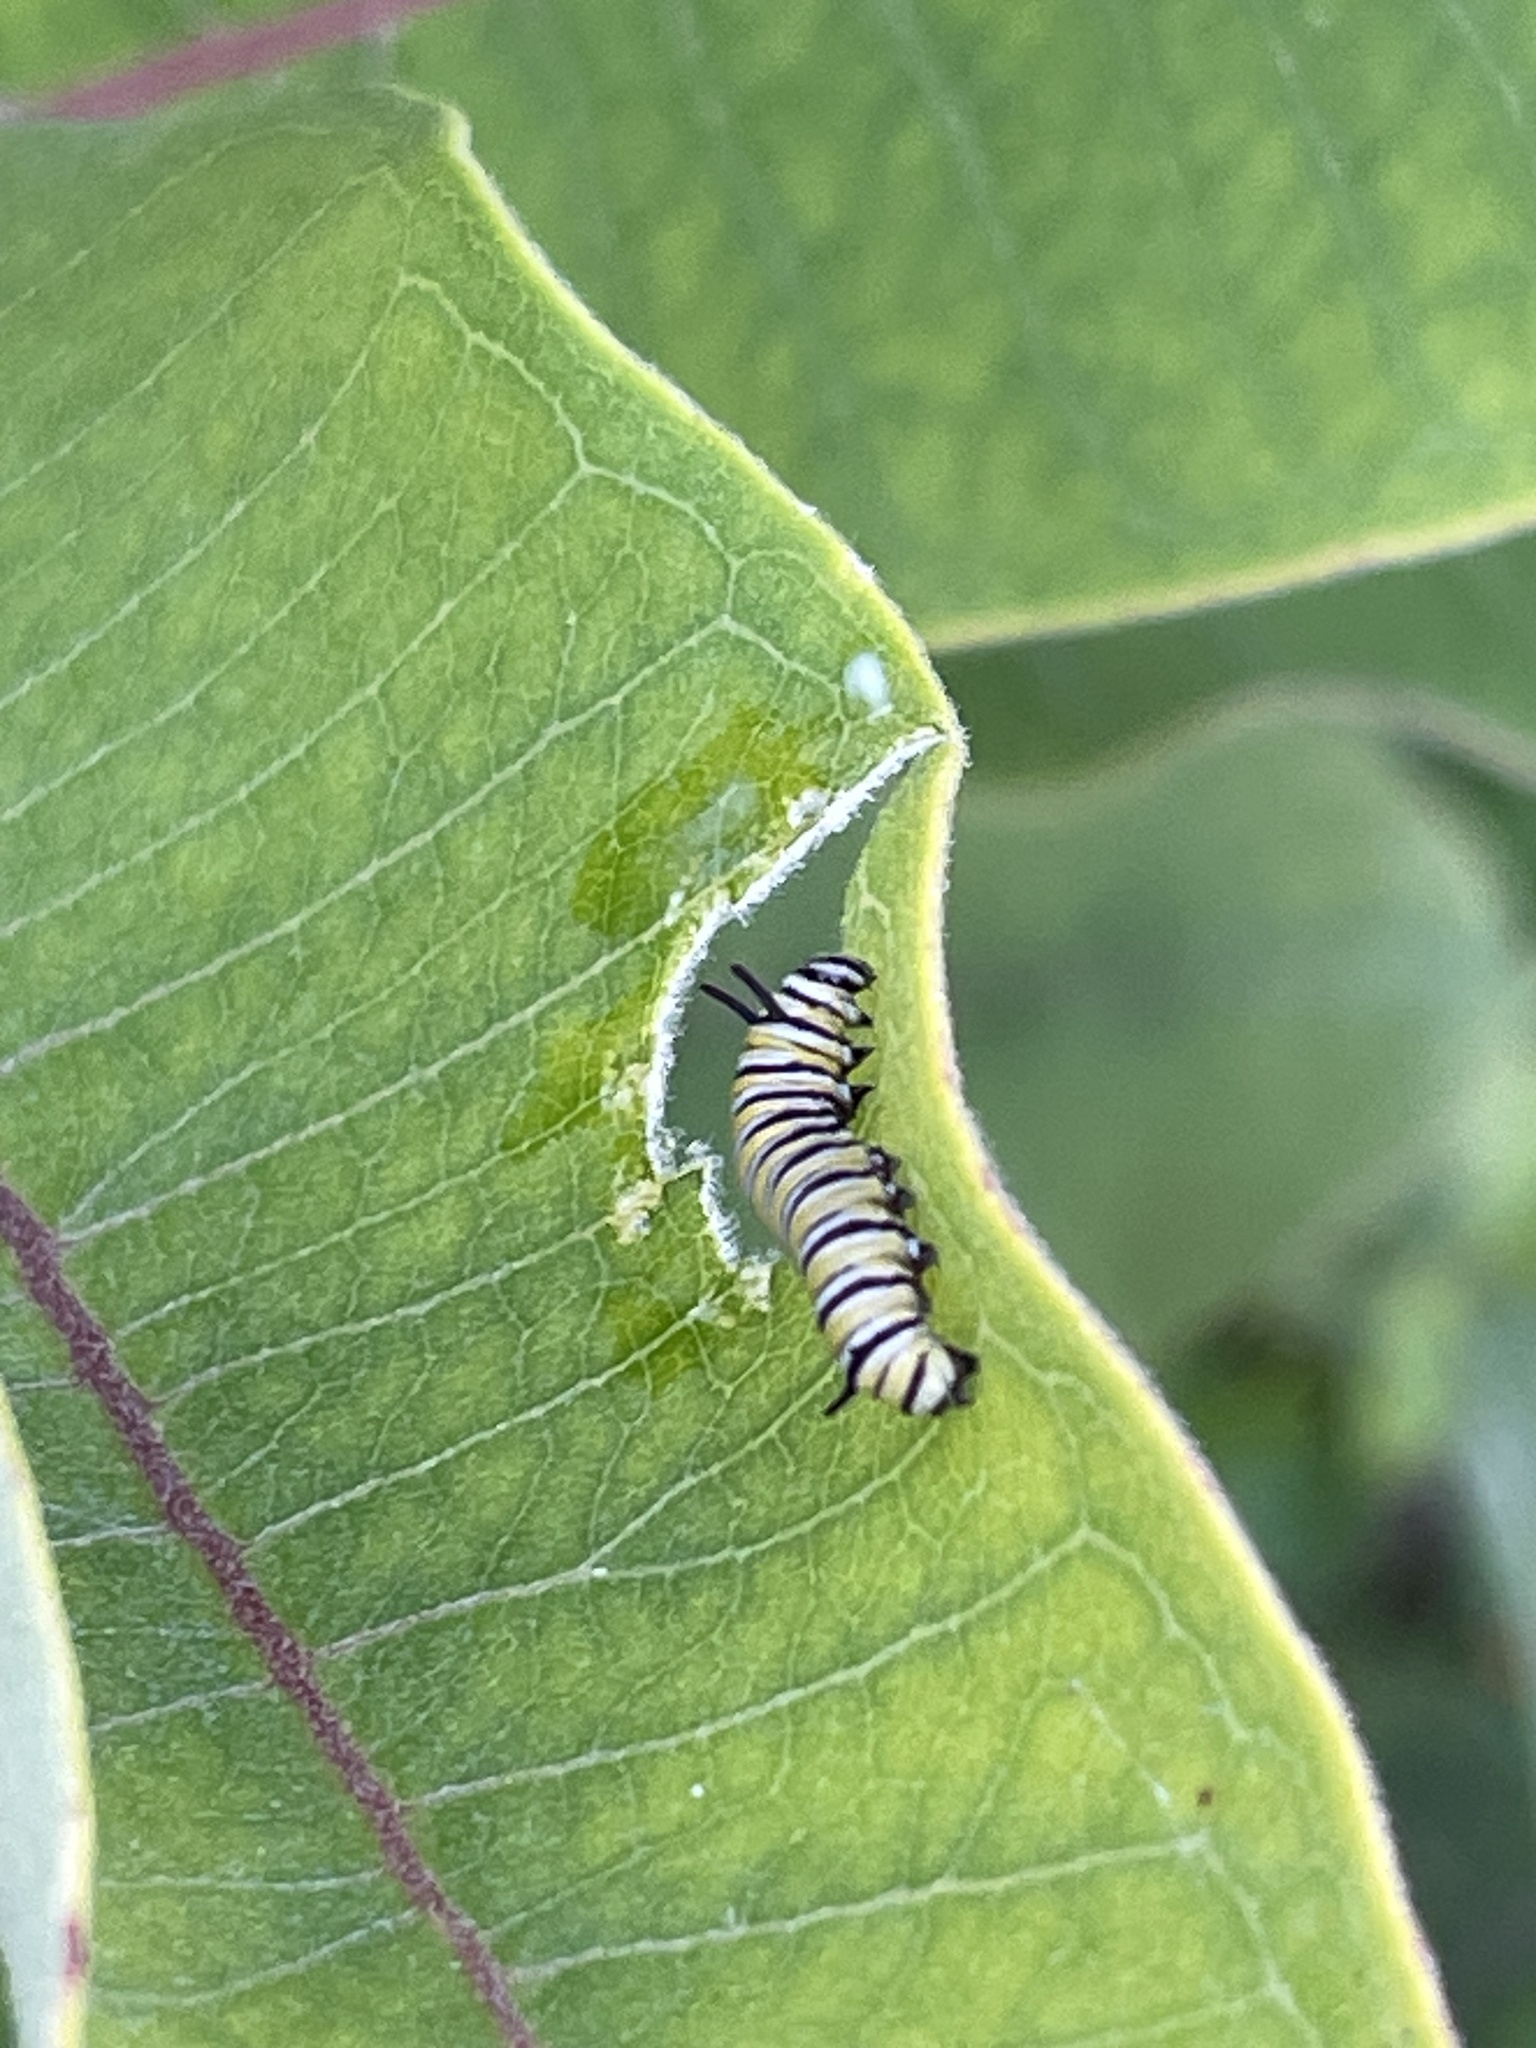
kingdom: Animalia
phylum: Arthropoda
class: Insecta
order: Lepidoptera
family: Nymphalidae
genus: Danaus
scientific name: Danaus plexippus
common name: Monarch
